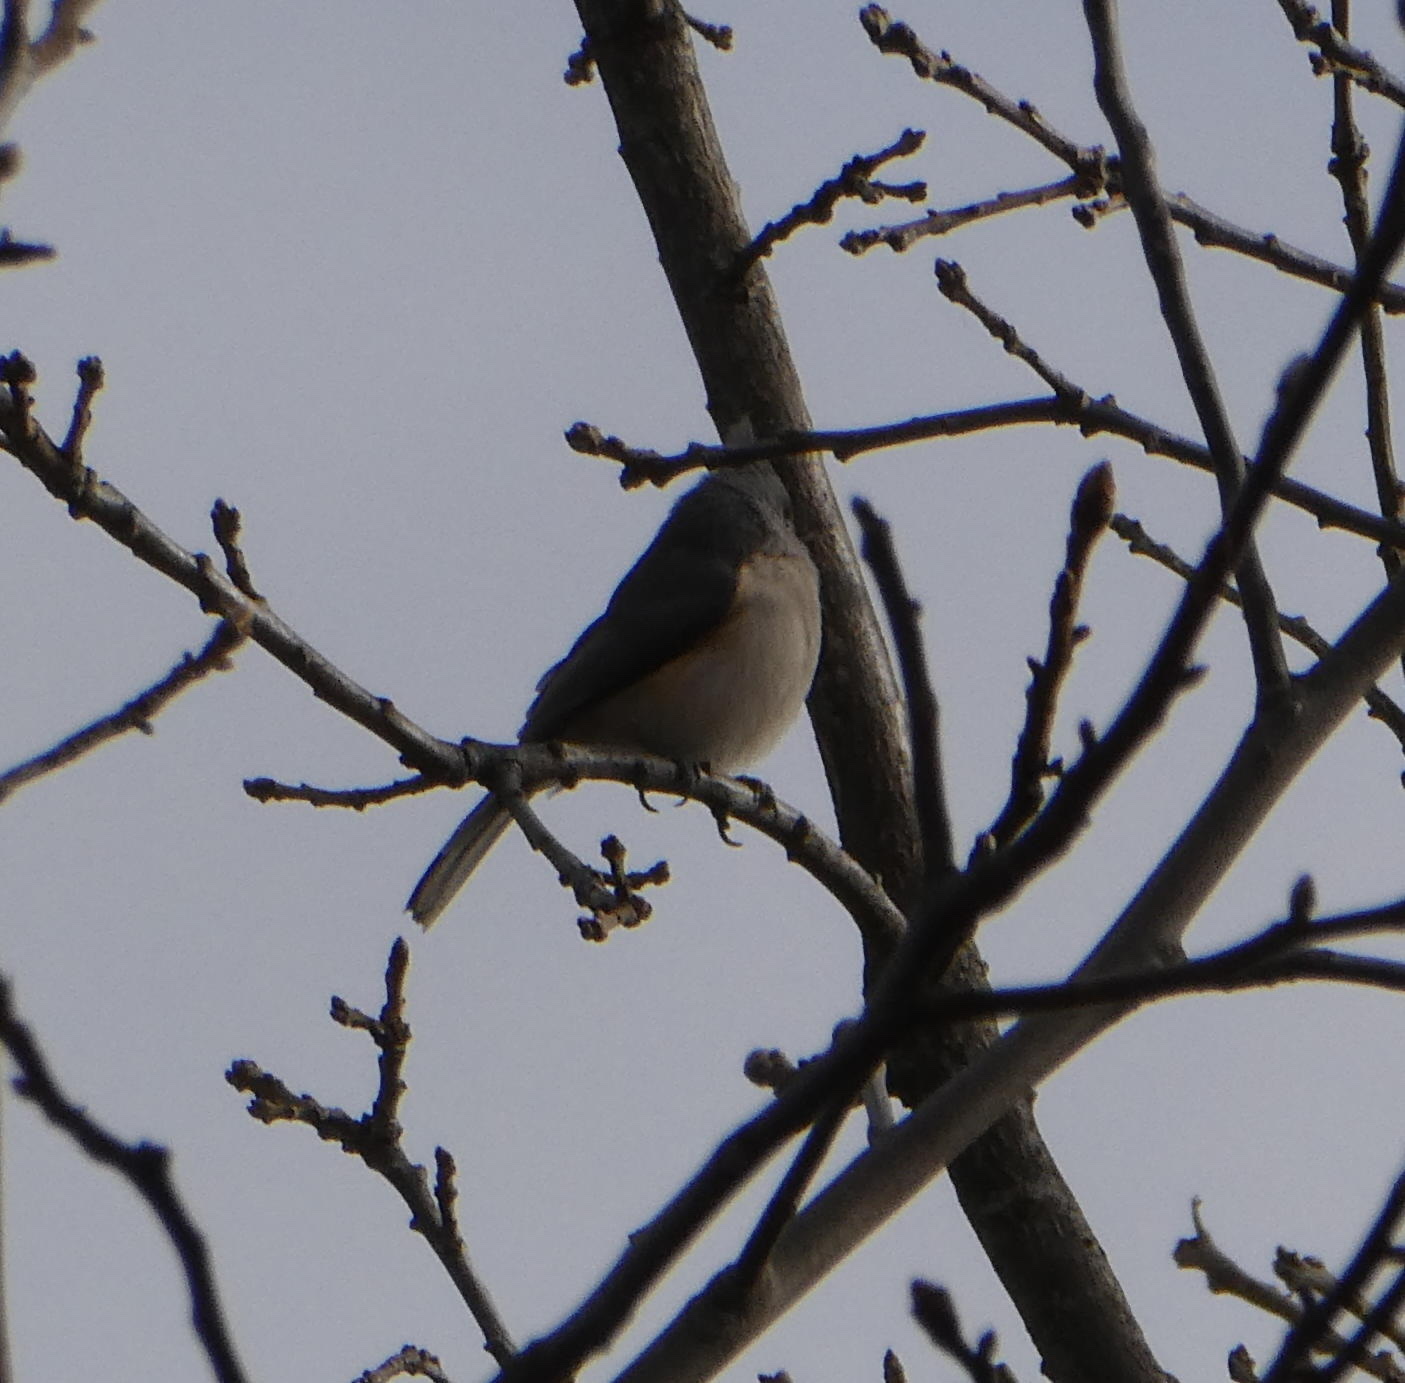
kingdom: Animalia
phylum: Chordata
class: Aves
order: Passeriformes
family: Paridae
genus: Baeolophus
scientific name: Baeolophus bicolor
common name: Tufted titmouse
